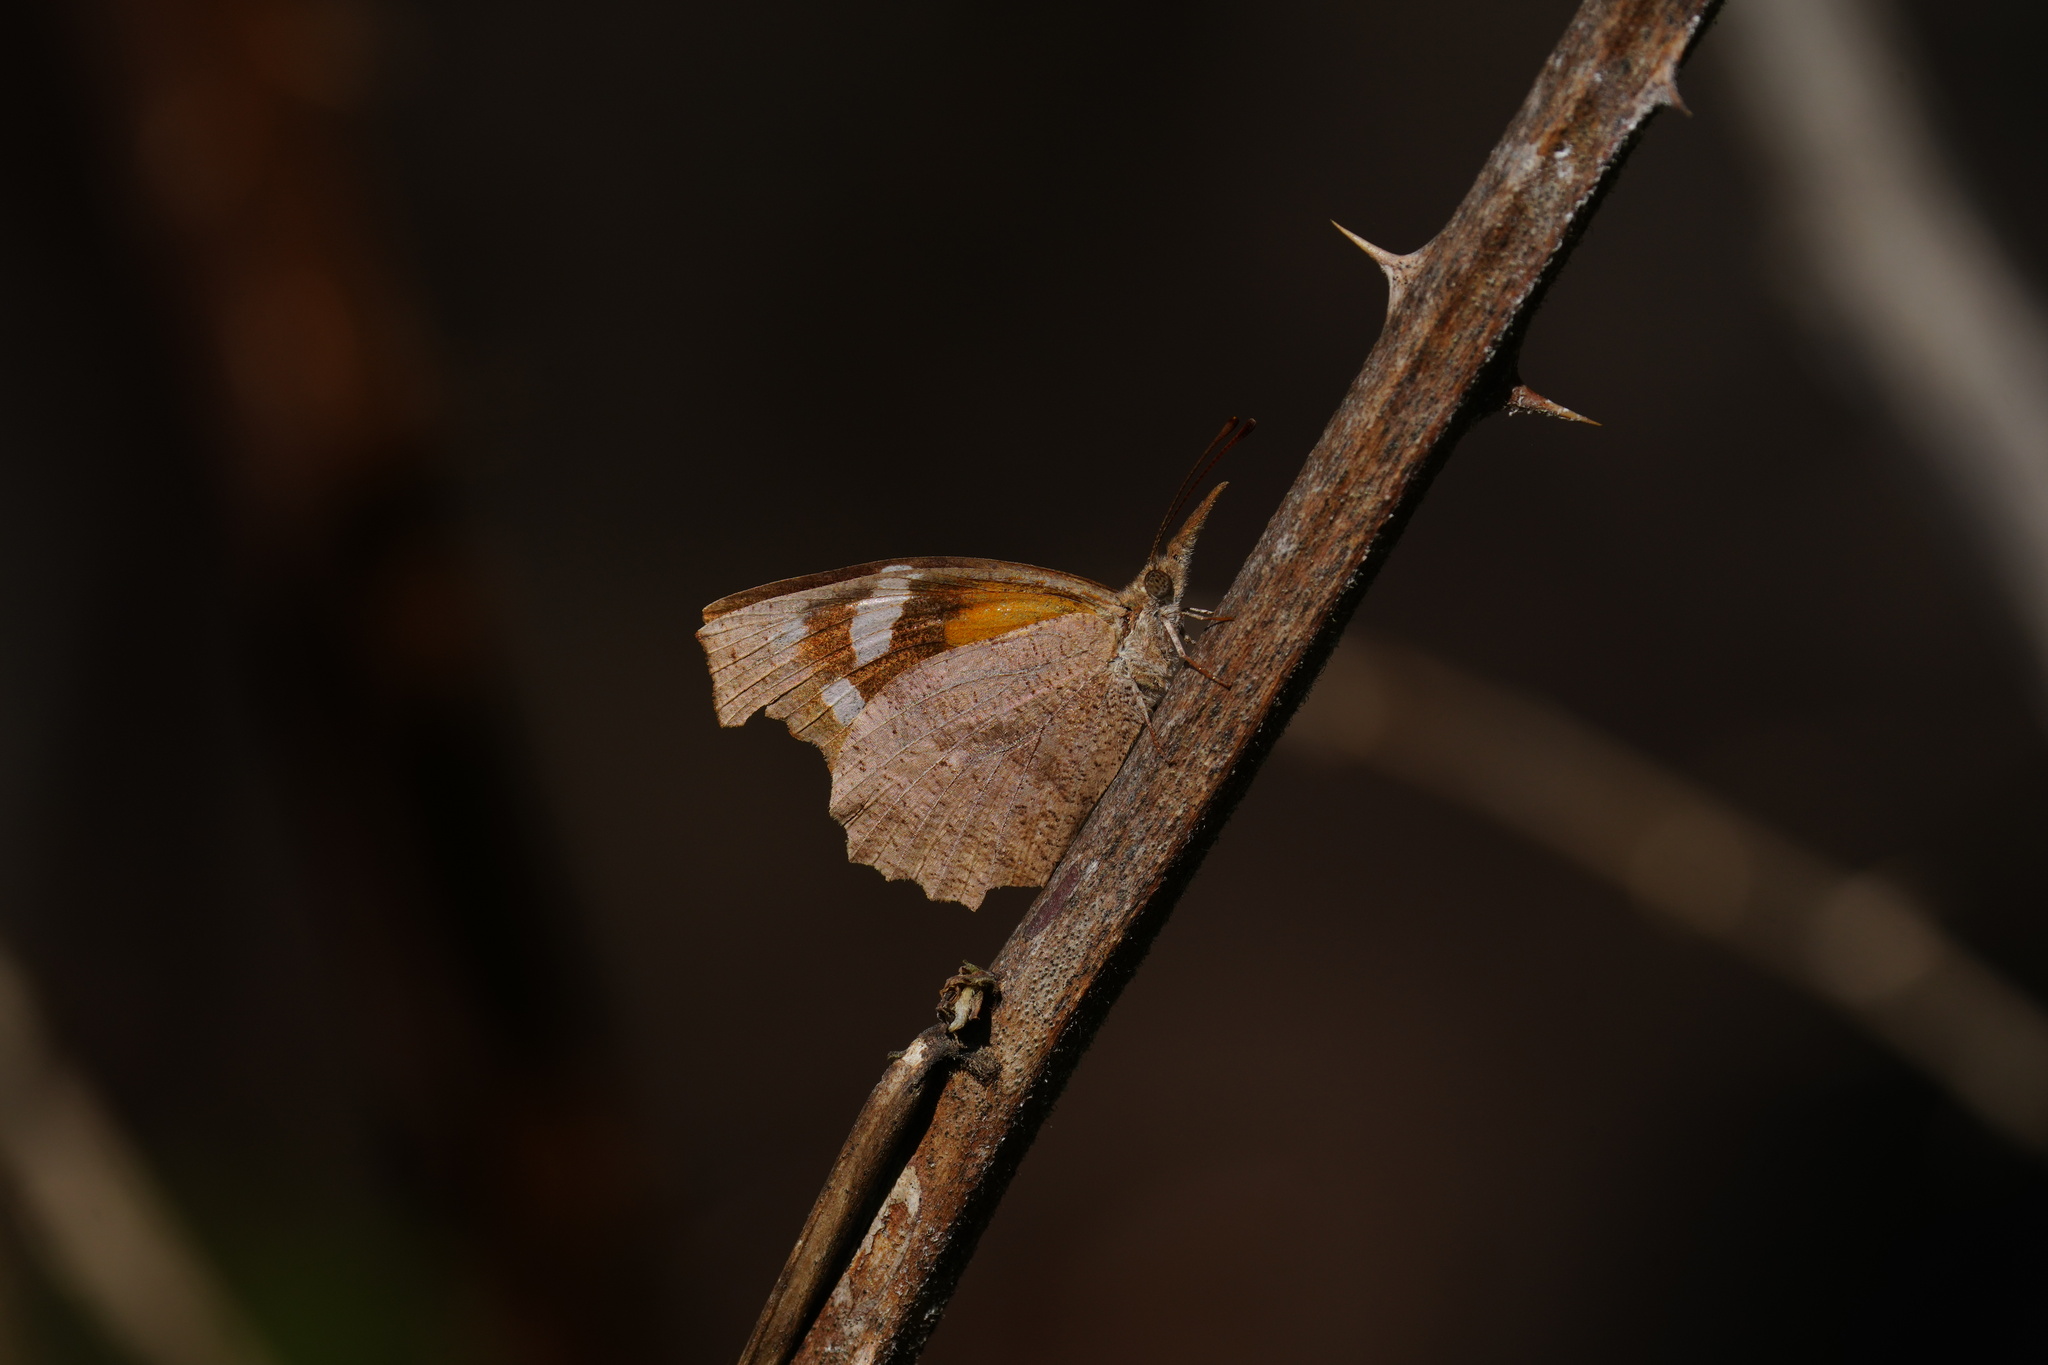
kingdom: Animalia
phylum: Arthropoda
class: Insecta
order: Lepidoptera
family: Nymphalidae
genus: Libytheana
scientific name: Libytheana carinenta
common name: American snout
